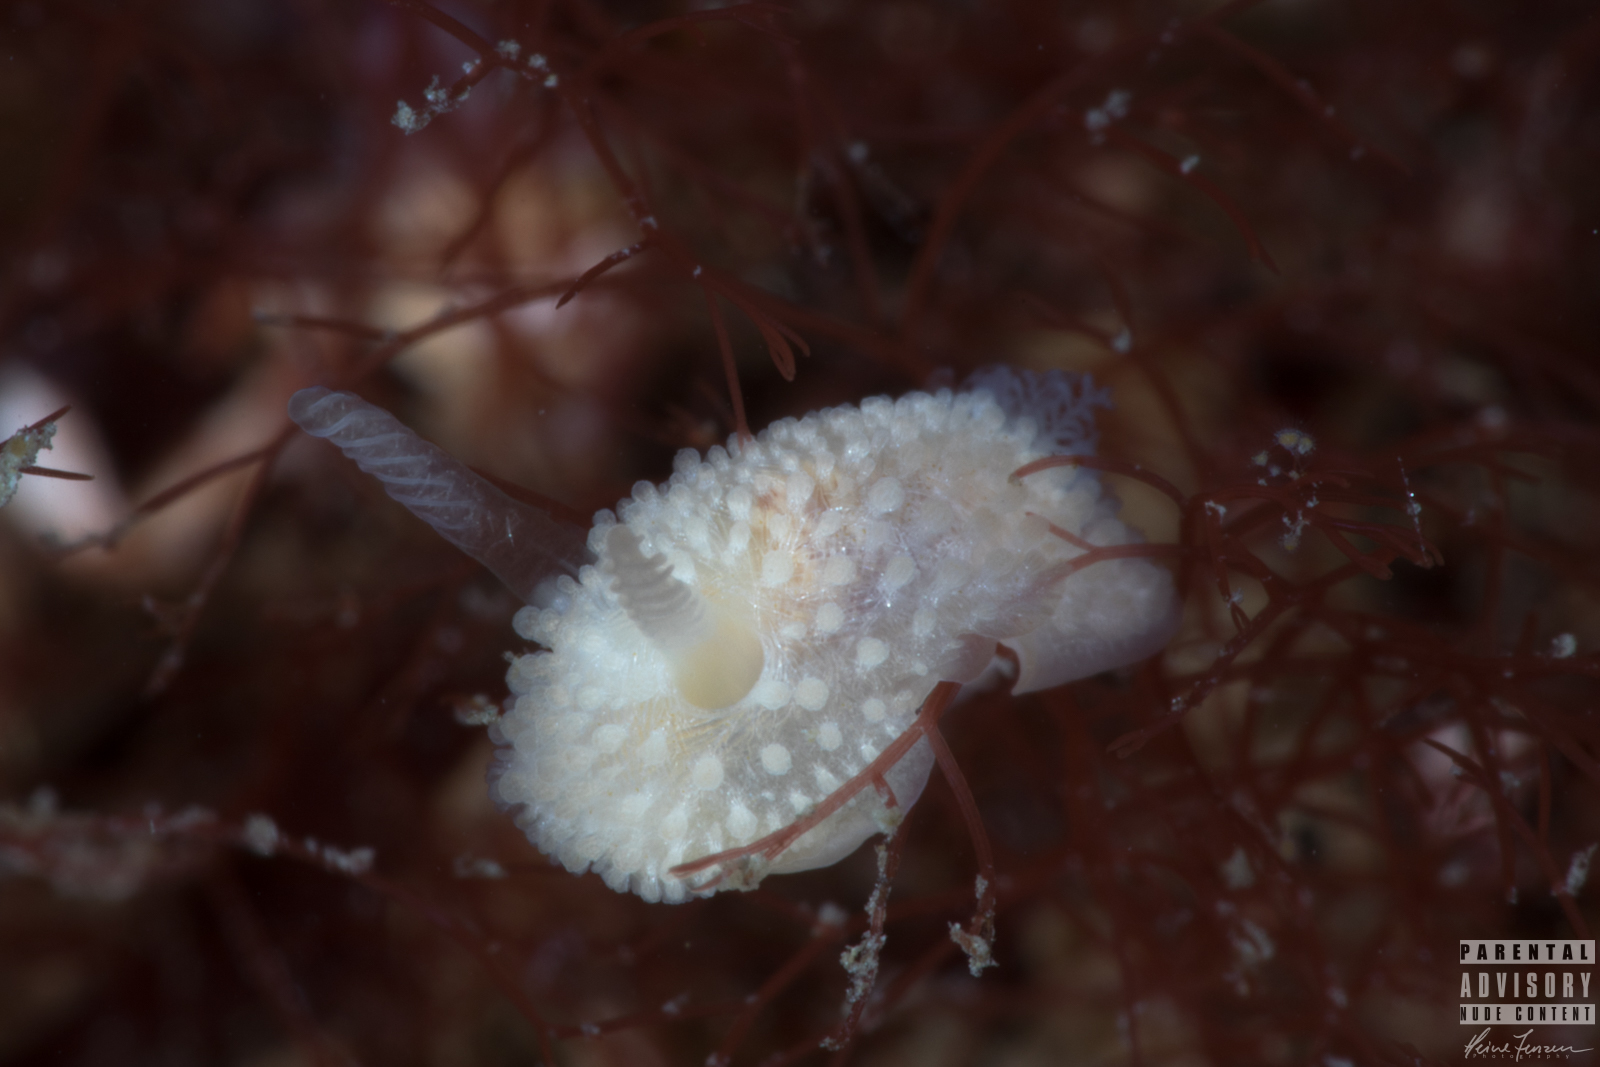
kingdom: Animalia
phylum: Mollusca
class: Gastropoda
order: Nudibranchia
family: Onchidorididae
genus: Onchidoris
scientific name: Onchidoris muricata
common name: Rough doris
